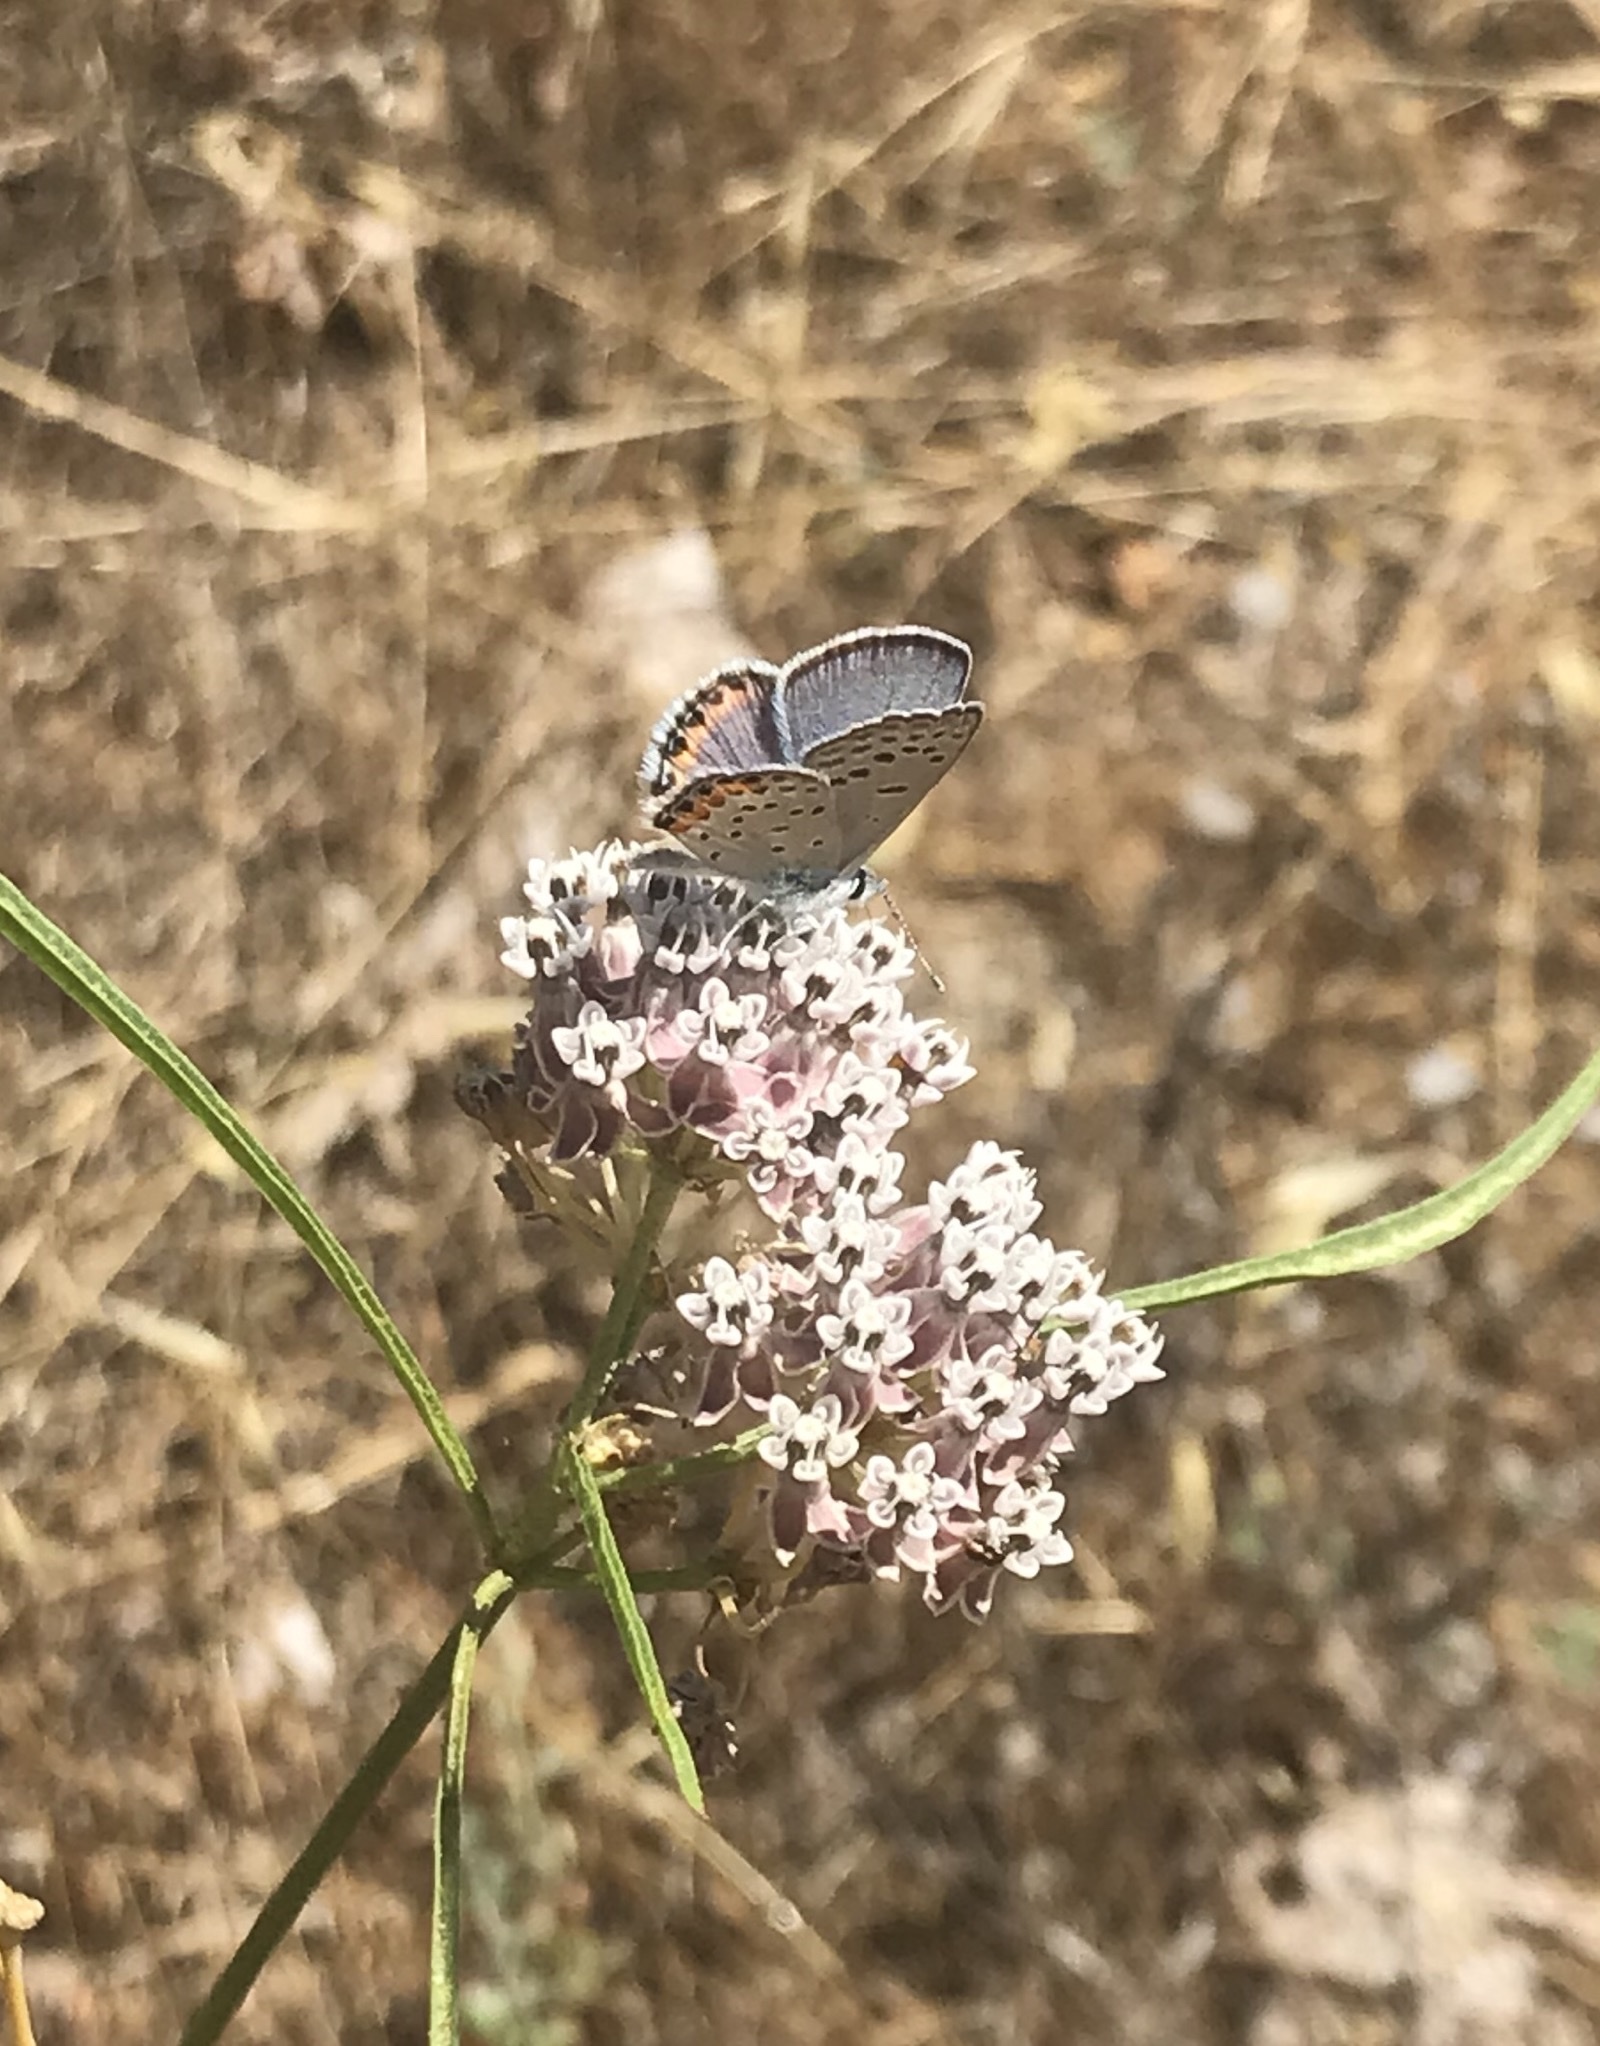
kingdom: Animalia
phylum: Arthropoda
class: Insecta
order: Lepidoptera
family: Lycaenidae
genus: Icaricia
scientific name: Icaricia acmon
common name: Acmon blue
